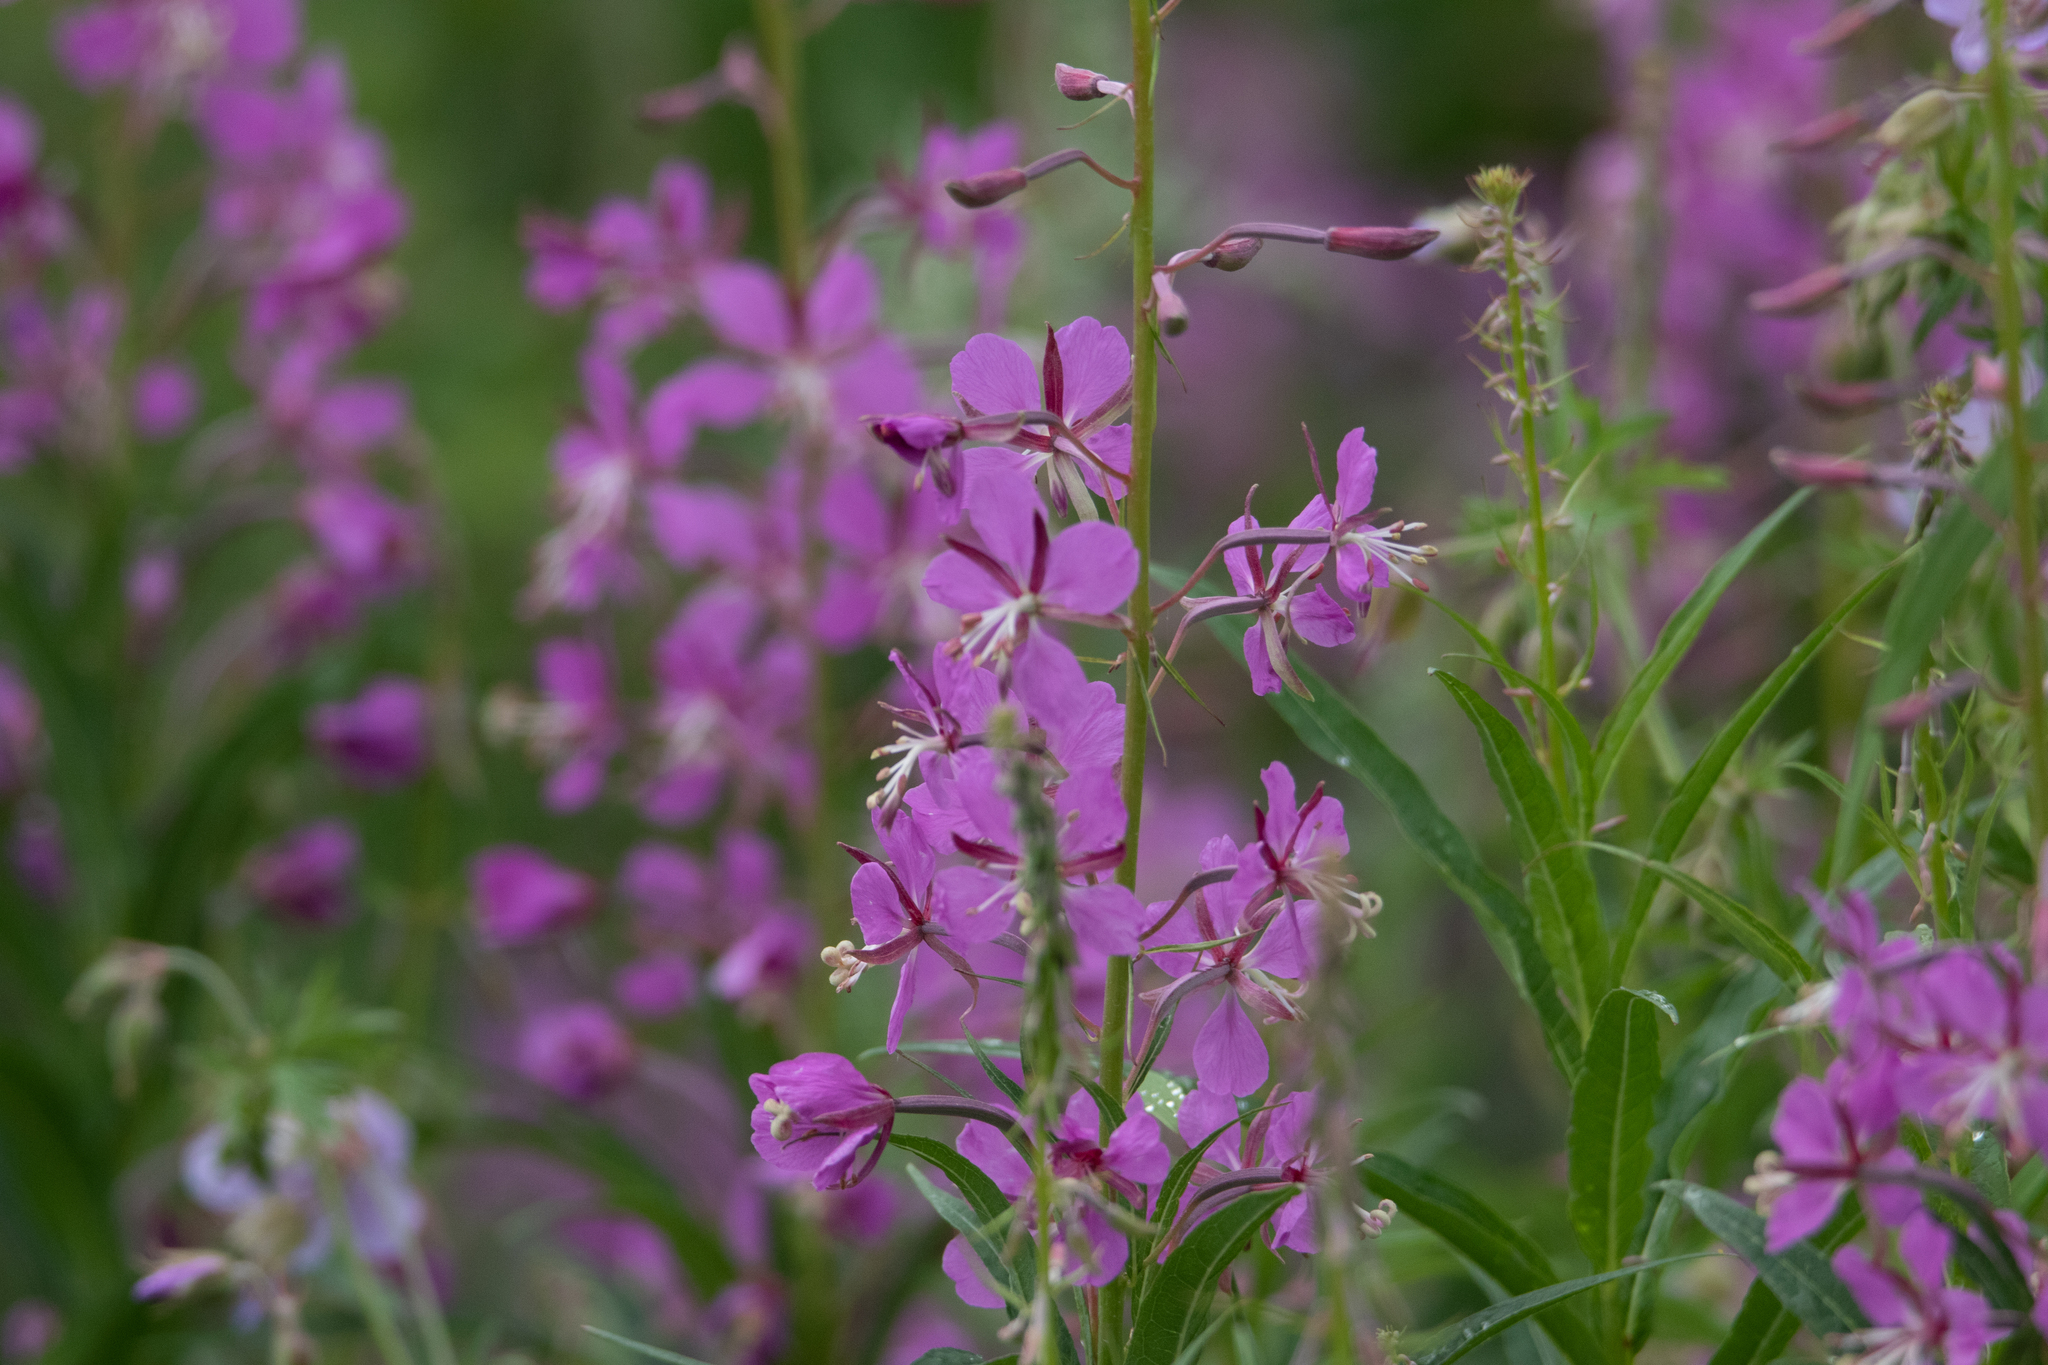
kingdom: Plantae
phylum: Tracheophyta
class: Magnoliopsida
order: Myrtales
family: Onagraceae
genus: Chamaenerion
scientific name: Chamaenerion angustifolium
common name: Fireweed
